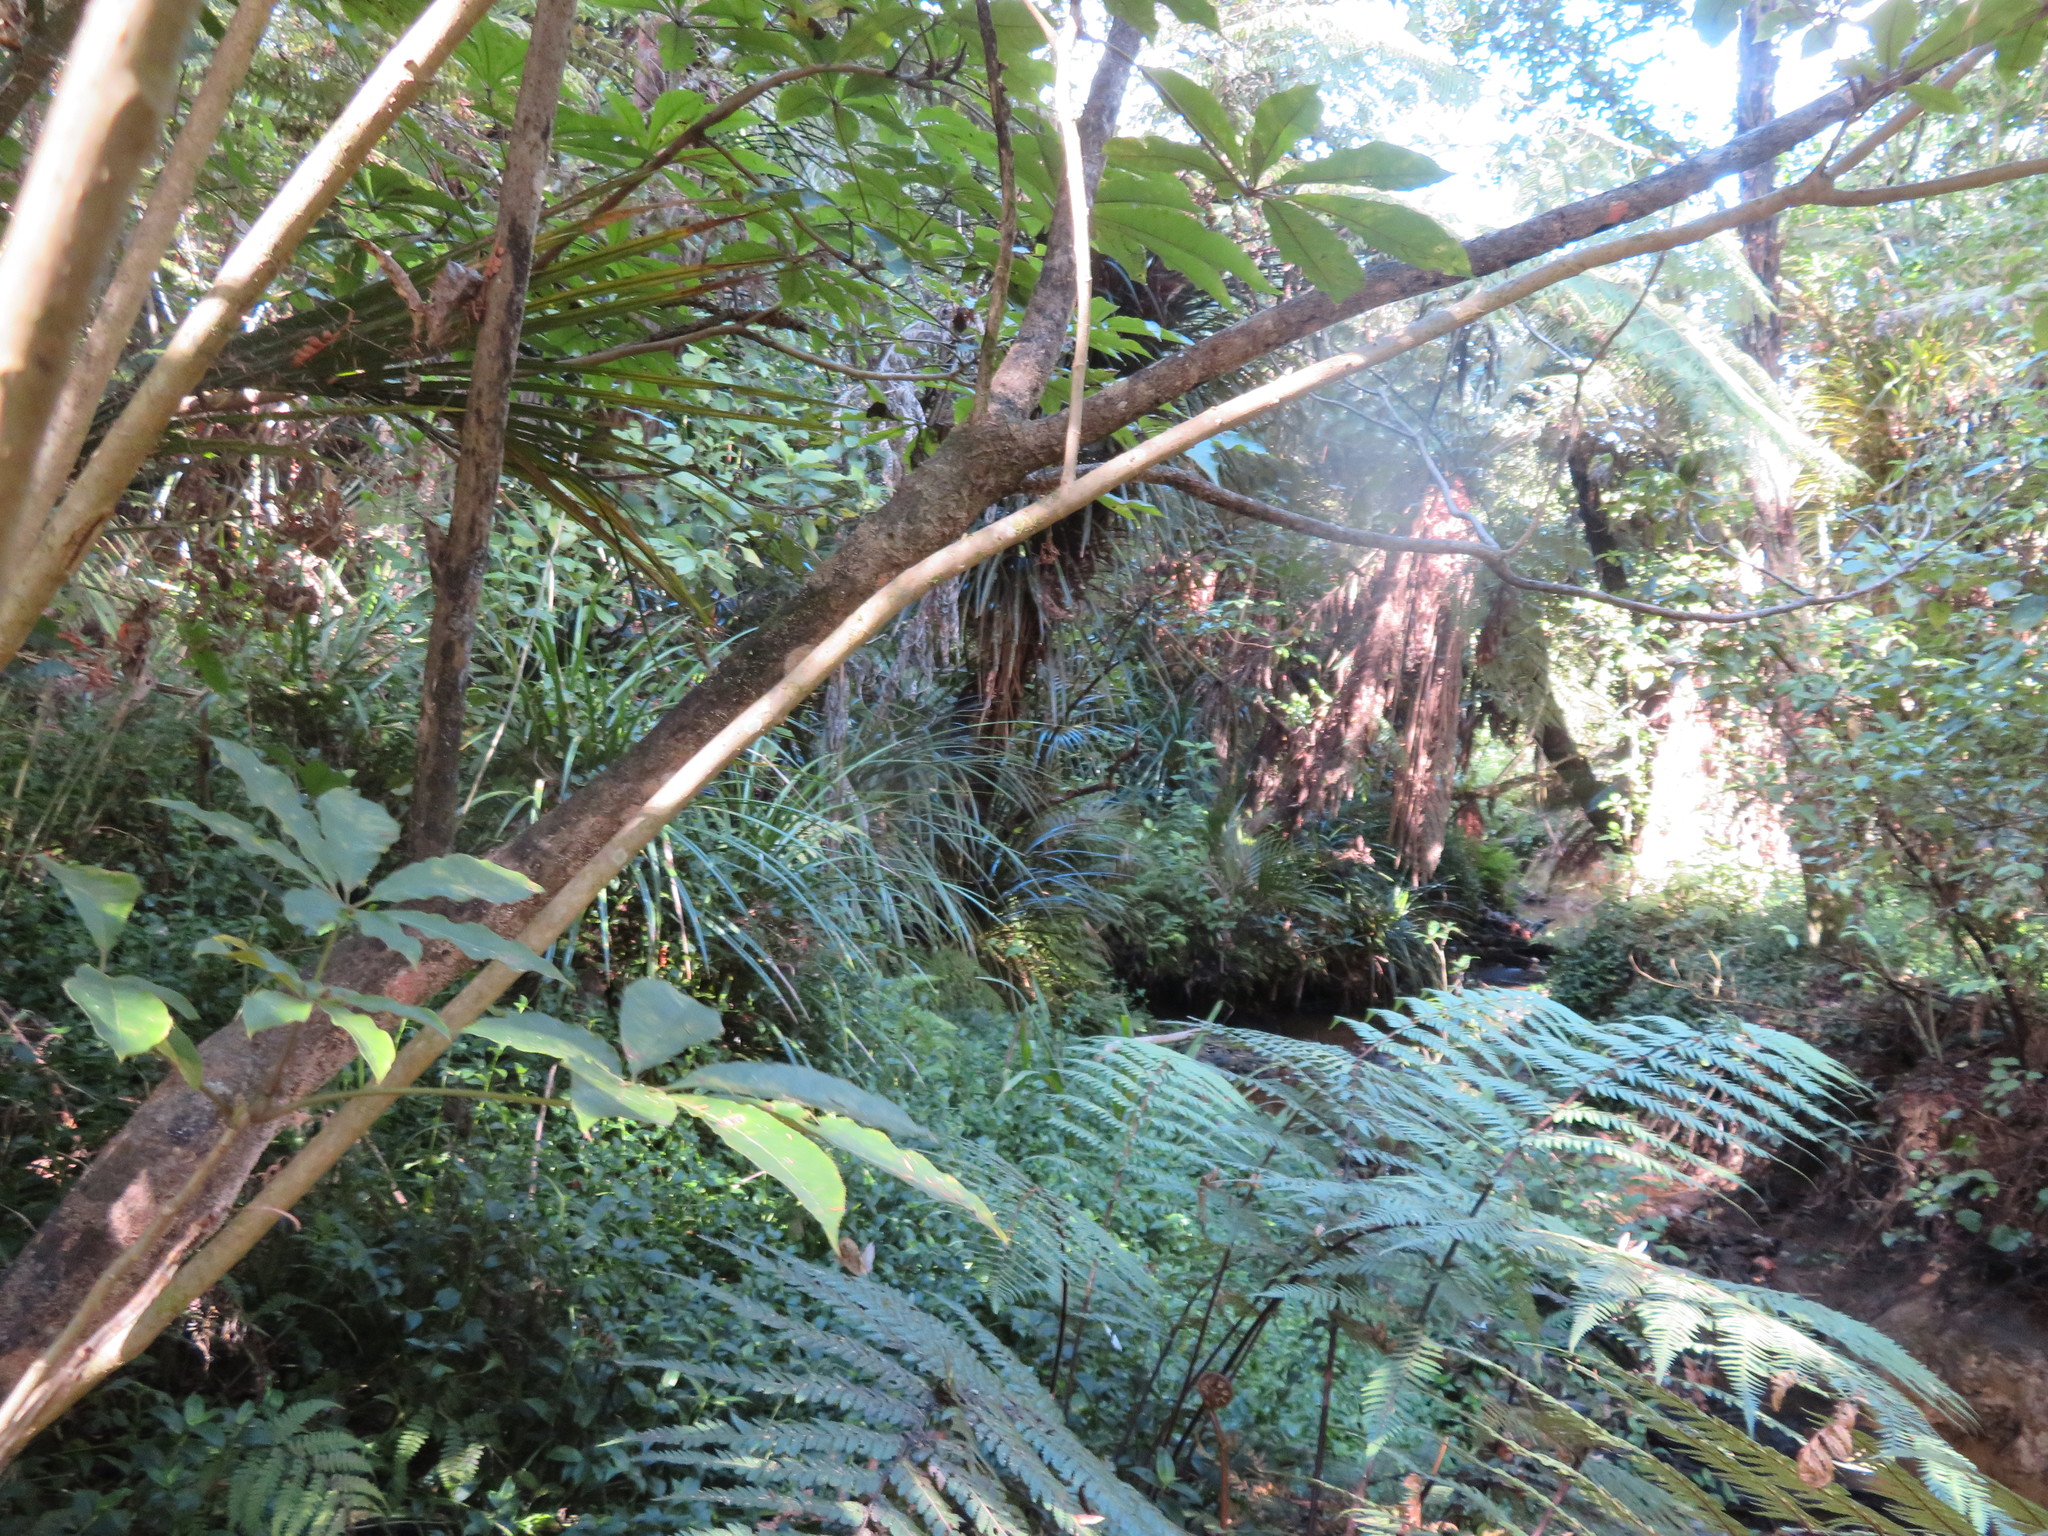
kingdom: Plantae
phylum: Tracheophyta
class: Magnoliopsida
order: Apiales
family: Araliaceae
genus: Schefflera
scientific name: Schefflera digitata
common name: Pate
